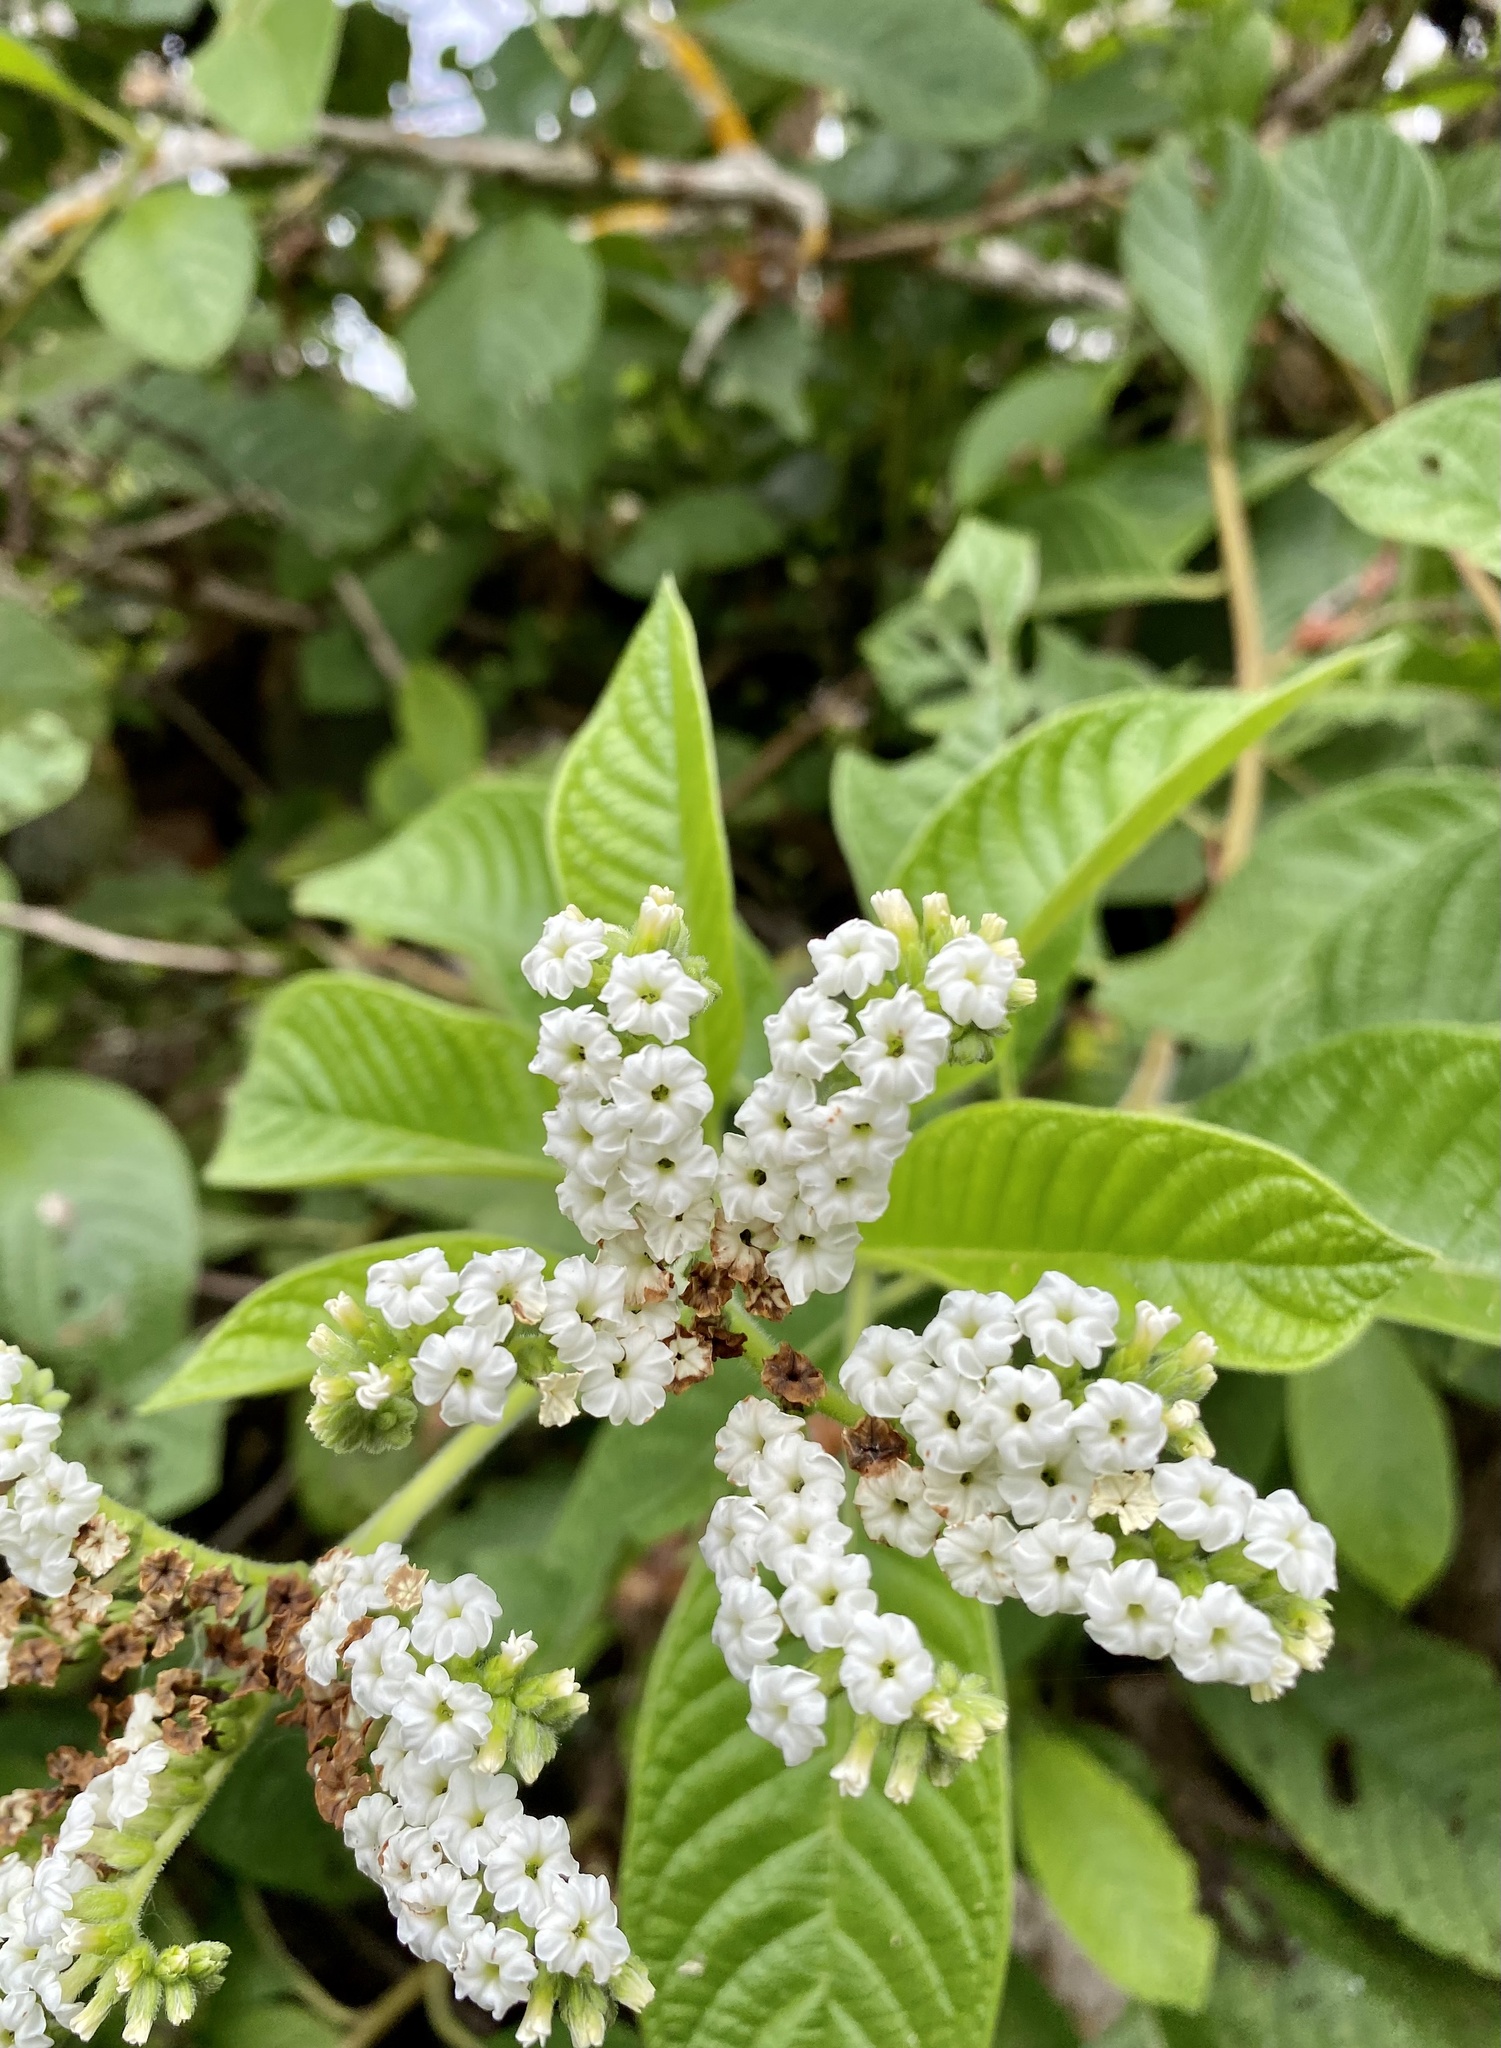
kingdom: Plantae
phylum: Tracheophyta
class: Magnoliopsida
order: Boraginales
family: Heliotropiaceae
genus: Tournefortia
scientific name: Tournefortia rufosericea
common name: Rufous-haired tournefortia
